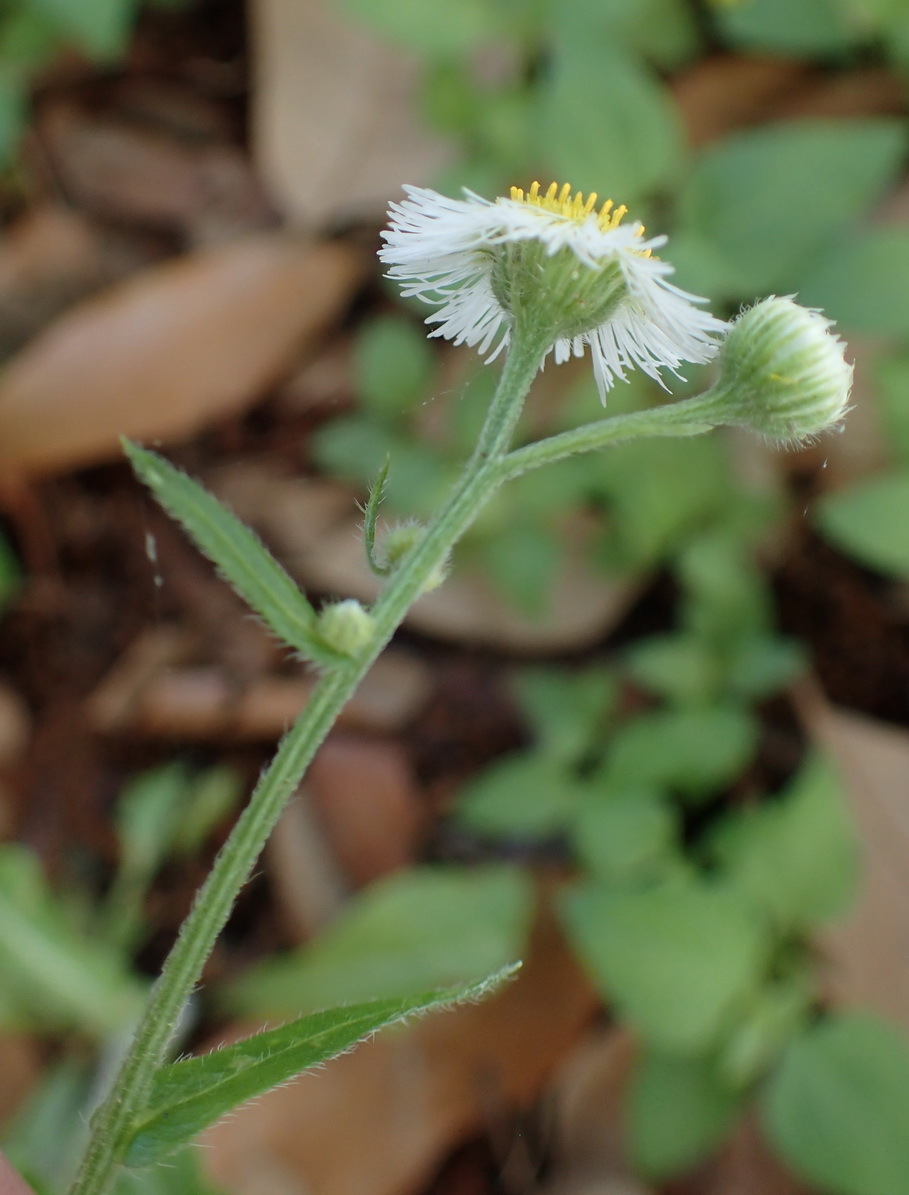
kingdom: Plantae
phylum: Tracheophyta
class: Magnoliopsida
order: Asterales
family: Asteraceae
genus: Erigeron
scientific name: Erigeron philadelphicus
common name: Robin's-plantain
